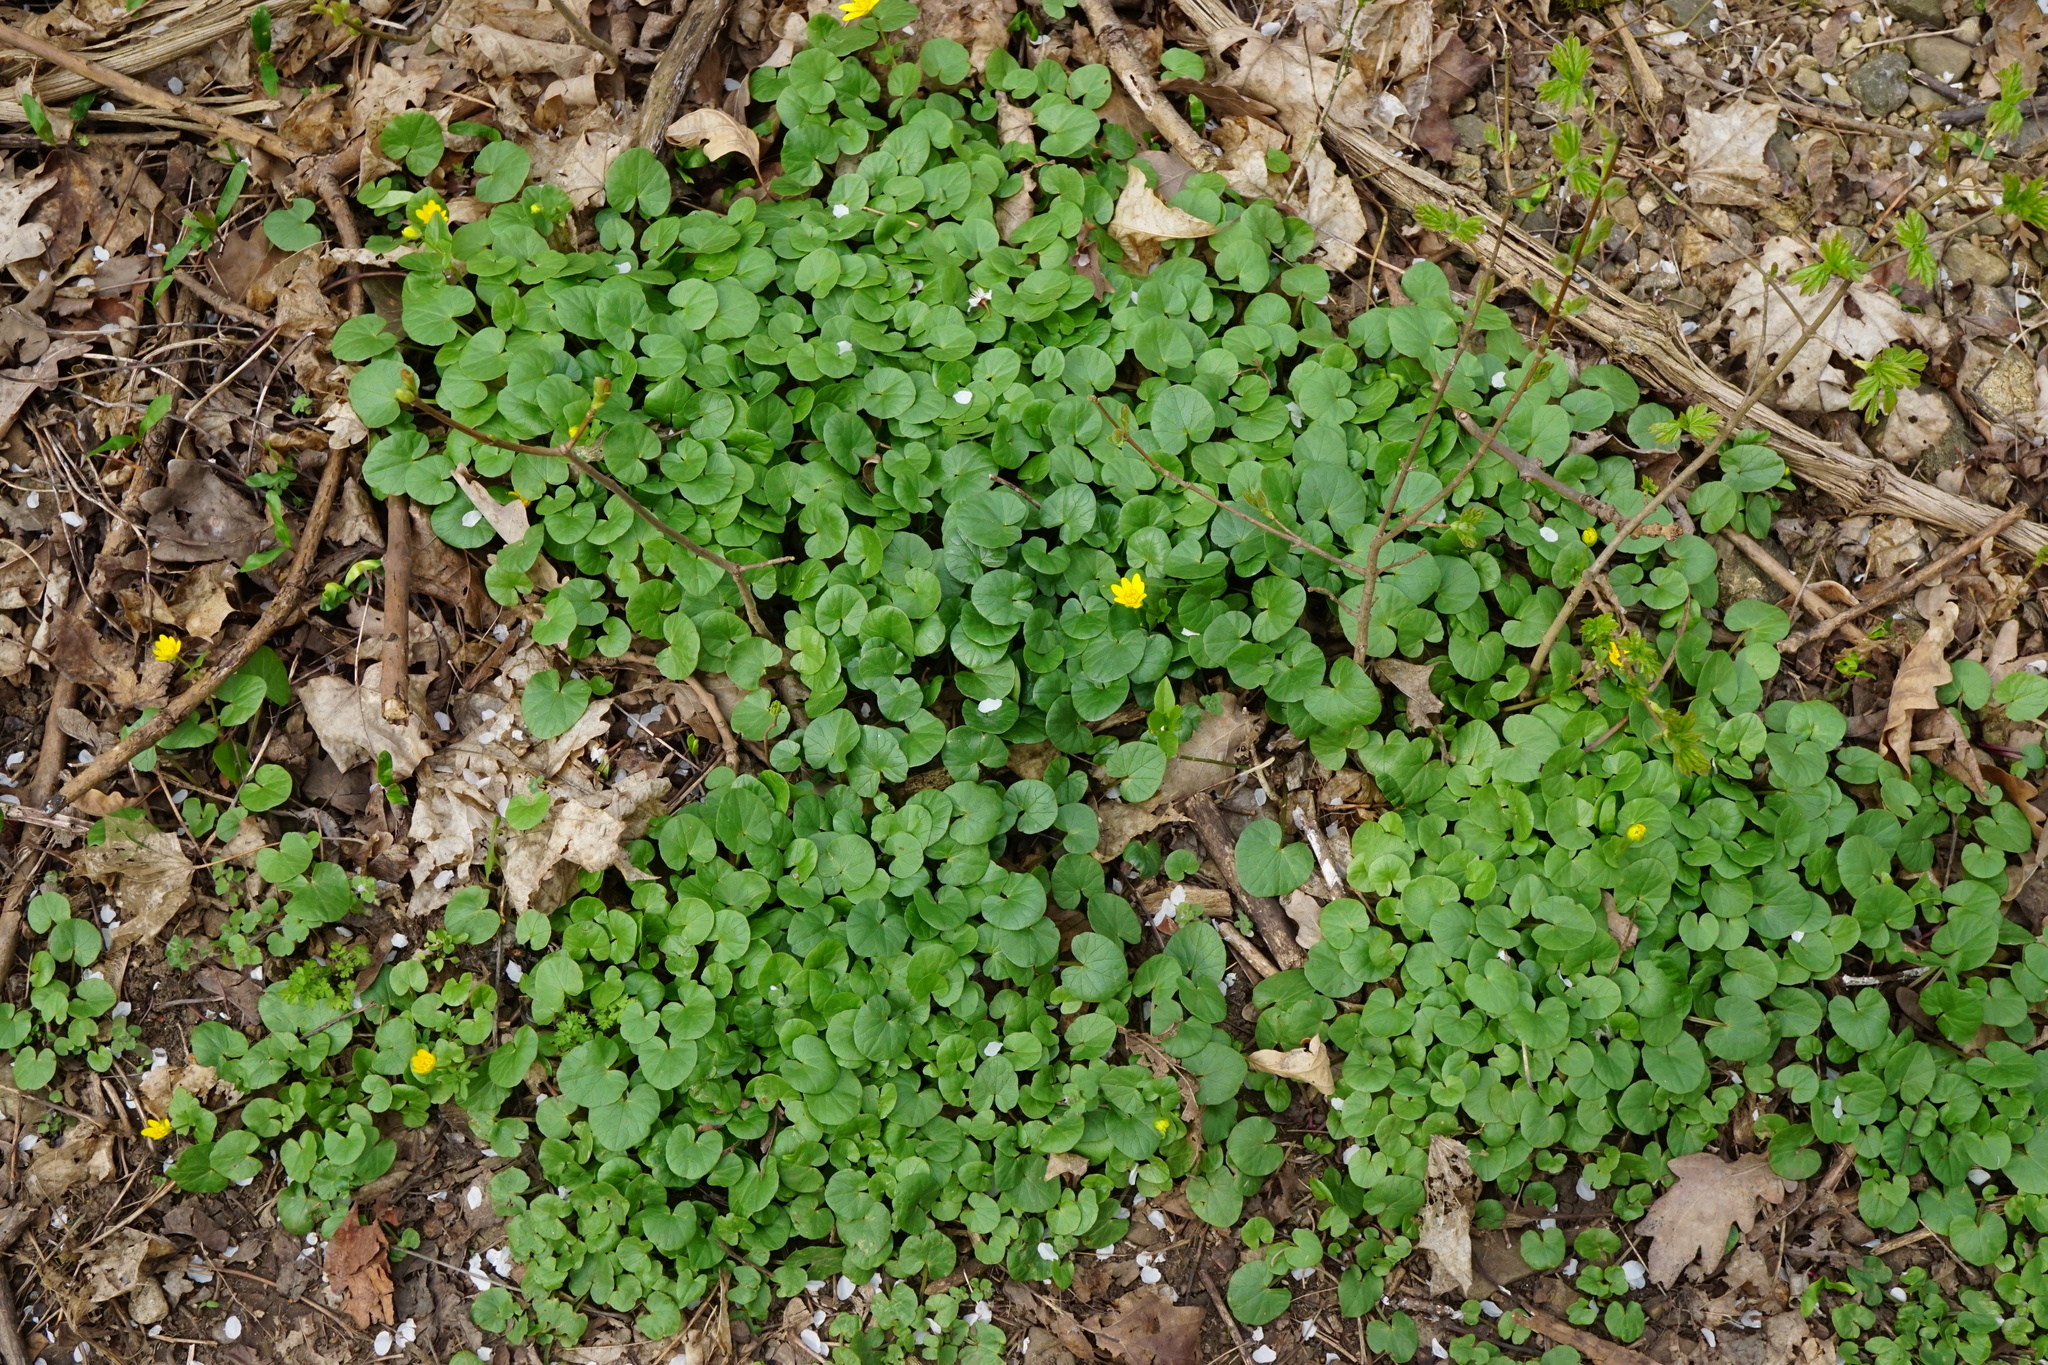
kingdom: Plantae
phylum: Tracheophyta
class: Magnoliopsida
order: Ranunculales
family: Ranunculaceae
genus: Ficaria
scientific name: Ficaria verna
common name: Lesser celandine
